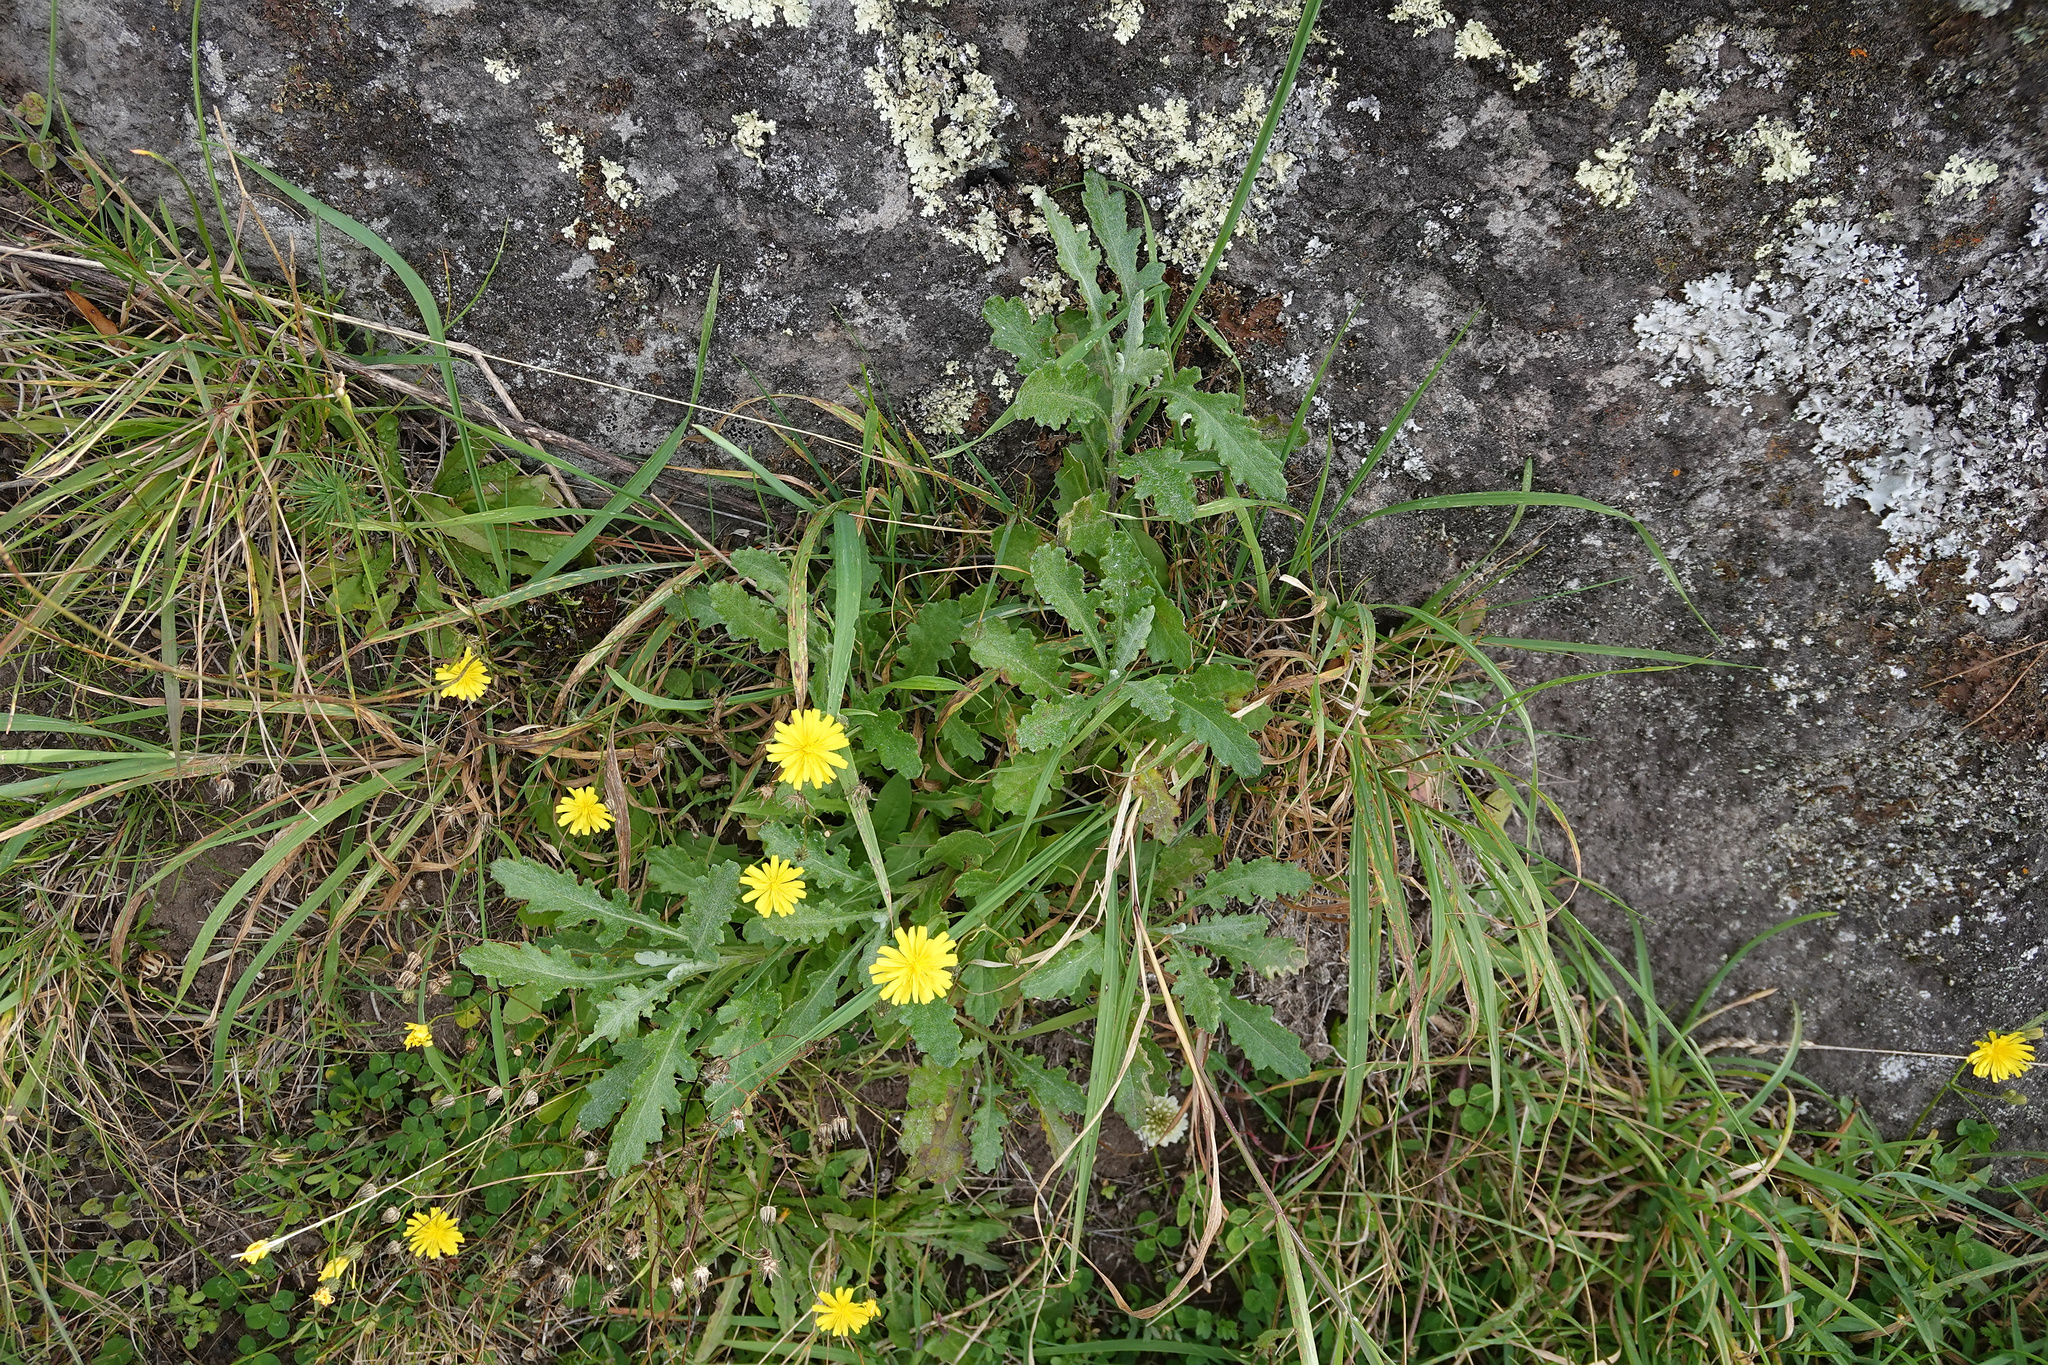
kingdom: Plantae
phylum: Tracheophyta
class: Magnoliopsida
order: Asterales
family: Asteraceae
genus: Senecio
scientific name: Senecio glomeratus
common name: Cutleaf burnweed
